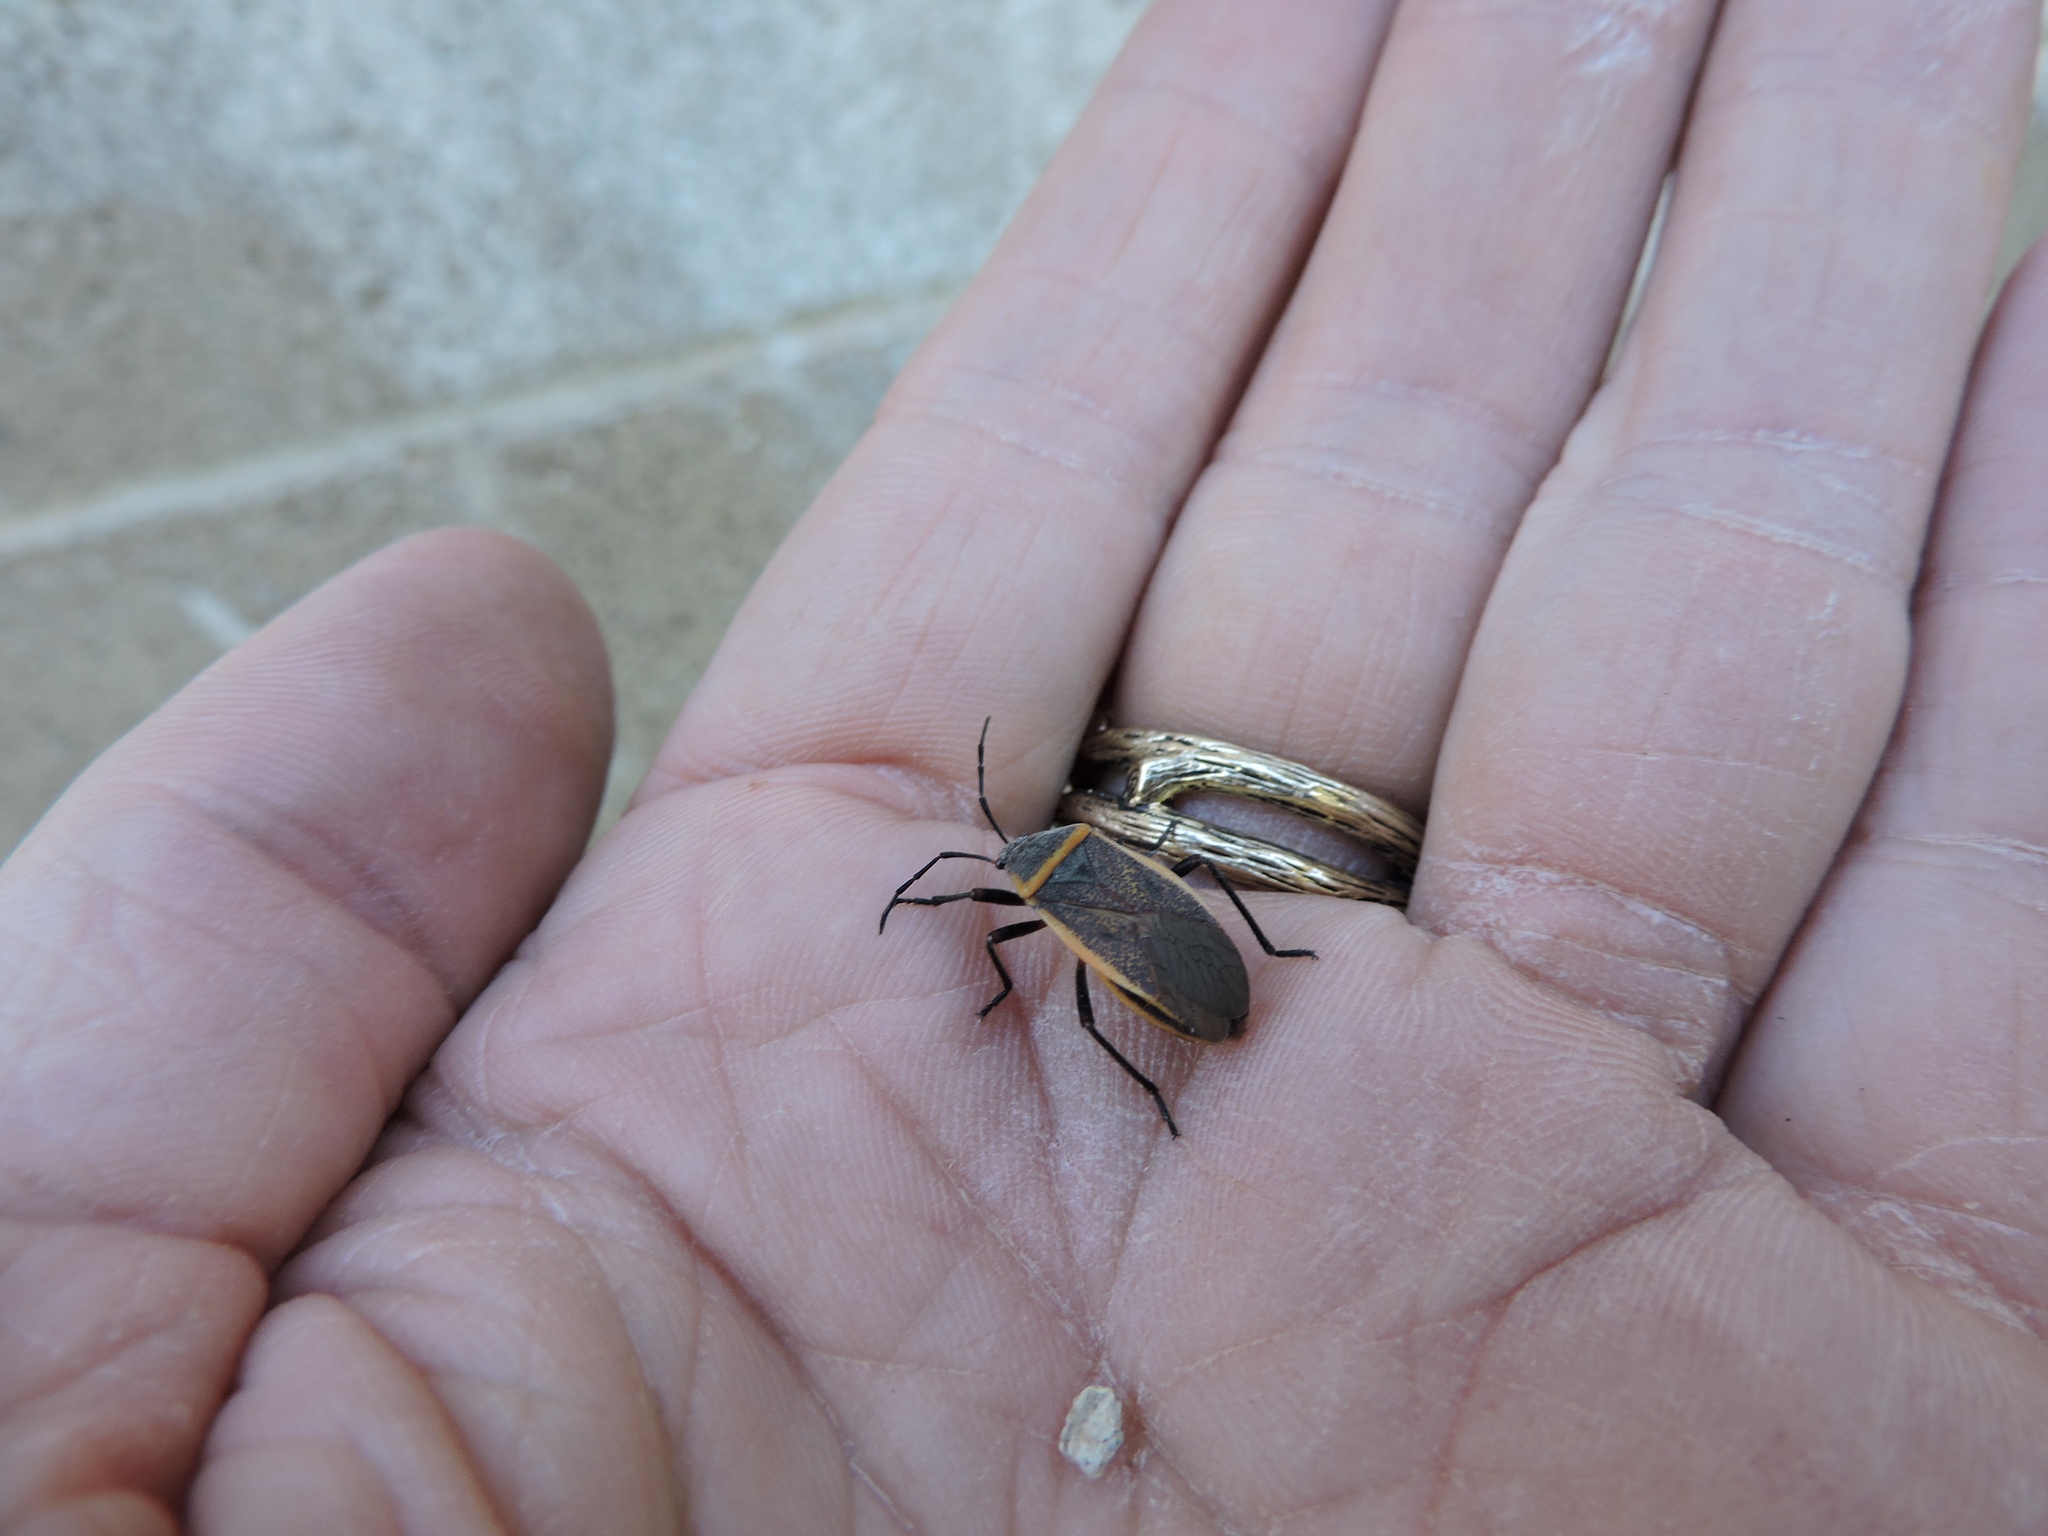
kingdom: Animalia
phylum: Arthropoda
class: Insecta
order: Hemiptera
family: Largidae
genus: Largus
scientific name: Largus sculptilis
